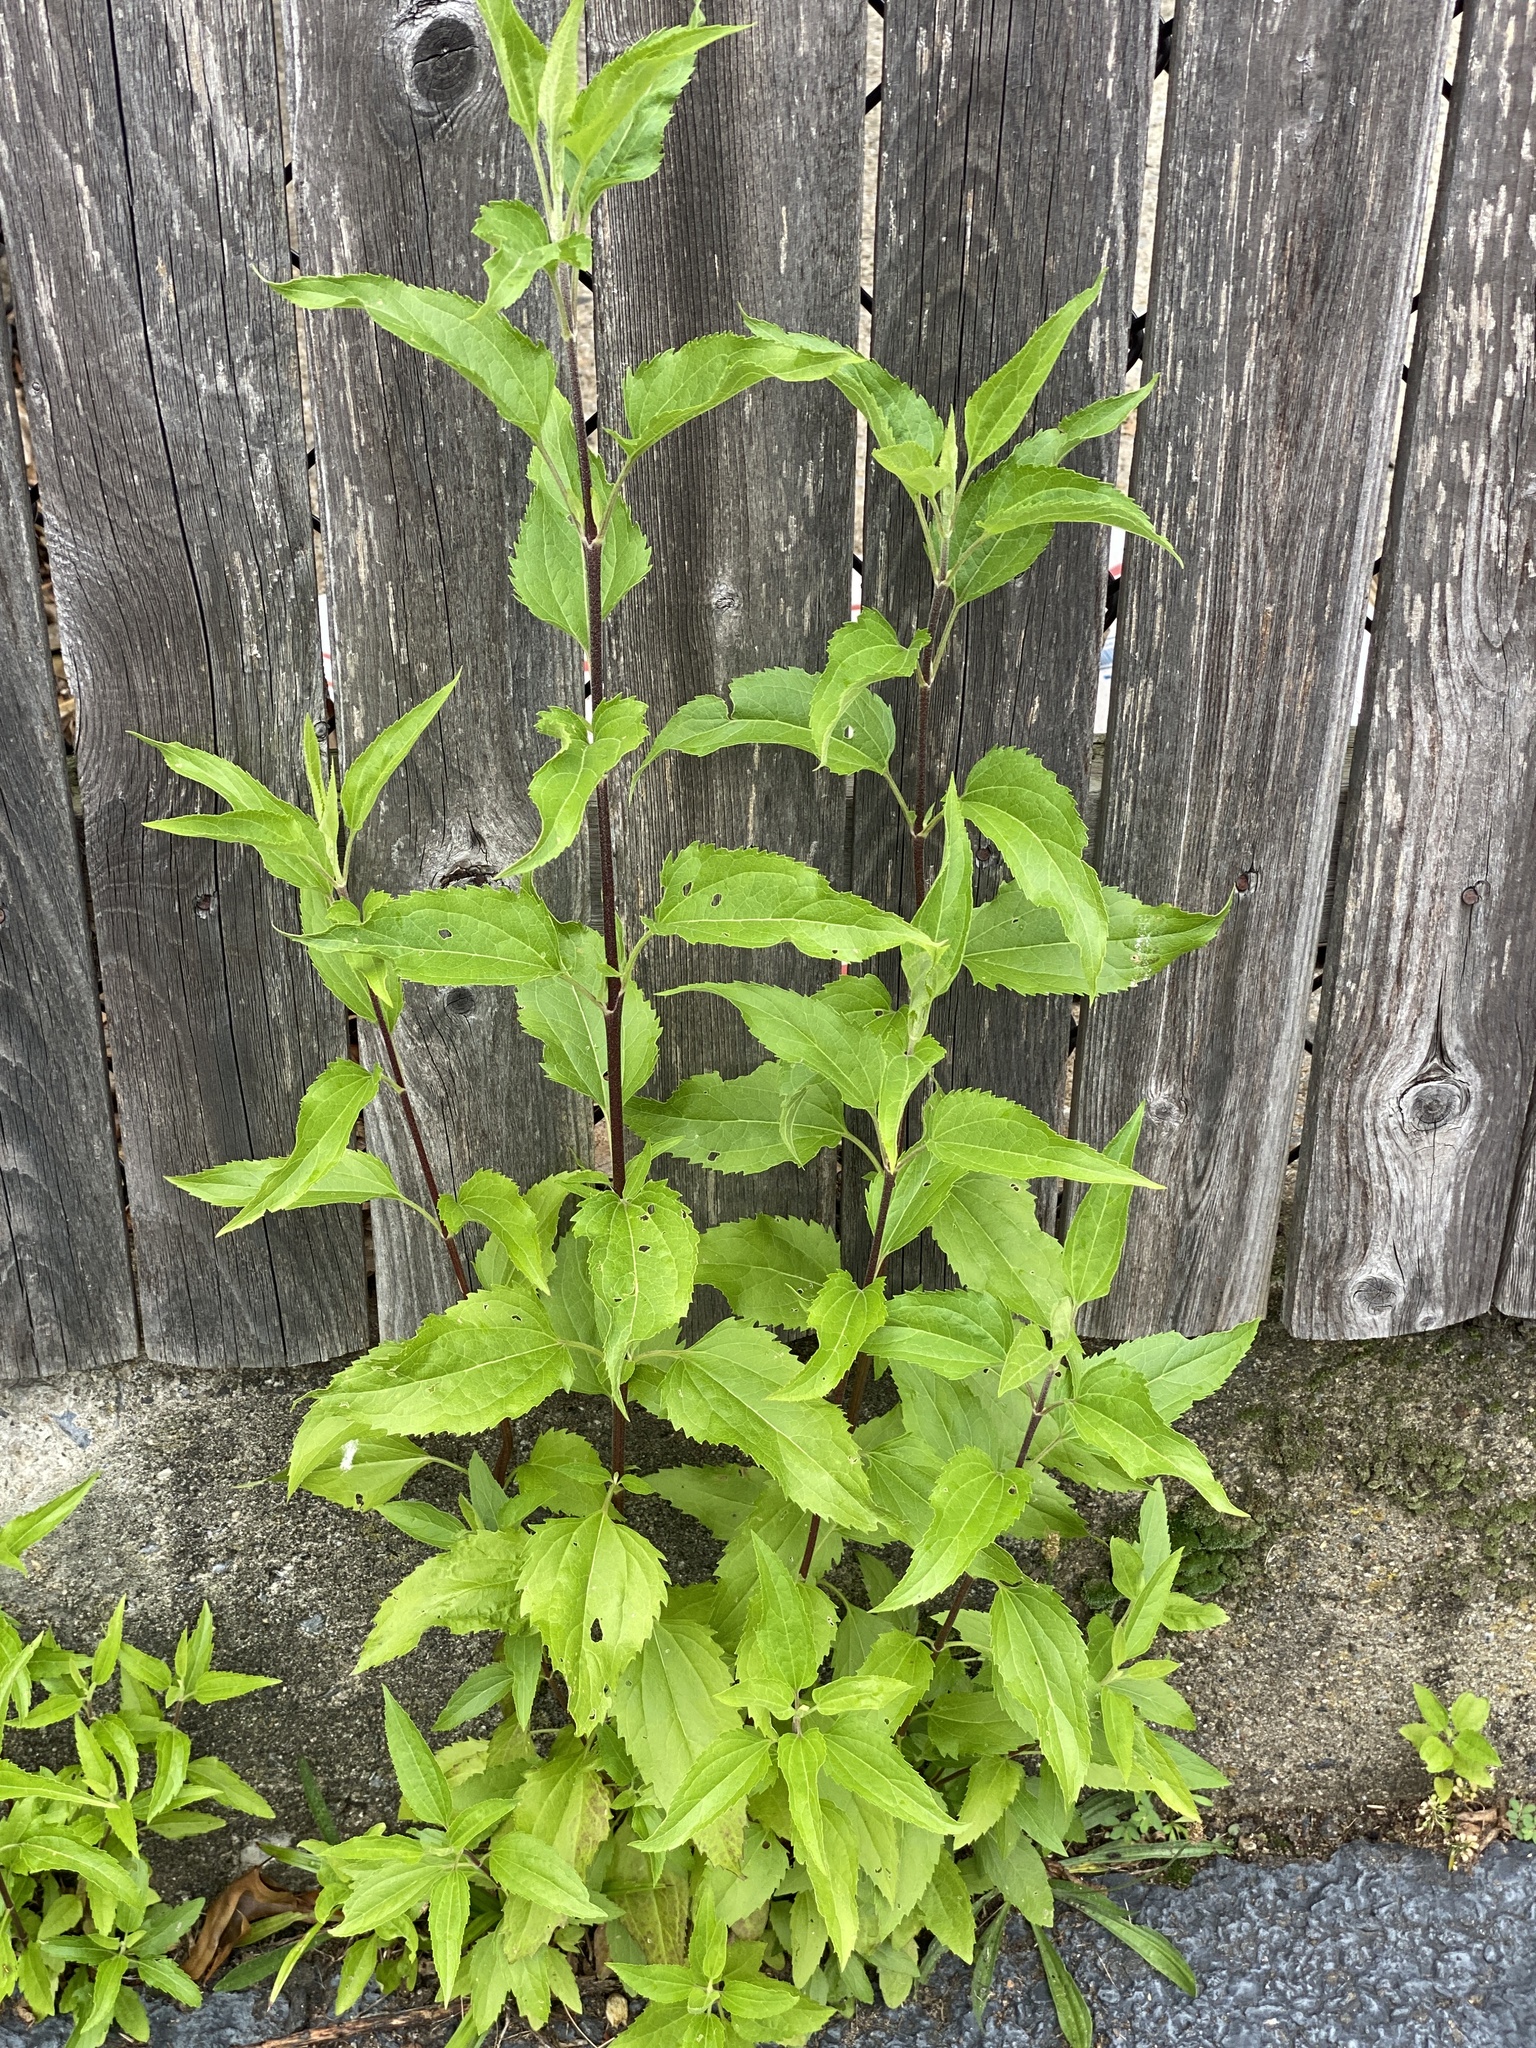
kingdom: Plantae
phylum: Tracheophyta
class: Magnoliopsida
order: Asterales
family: Asteraceae
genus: Eupatorium
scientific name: Eupatorium serotinum
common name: Late boneset
